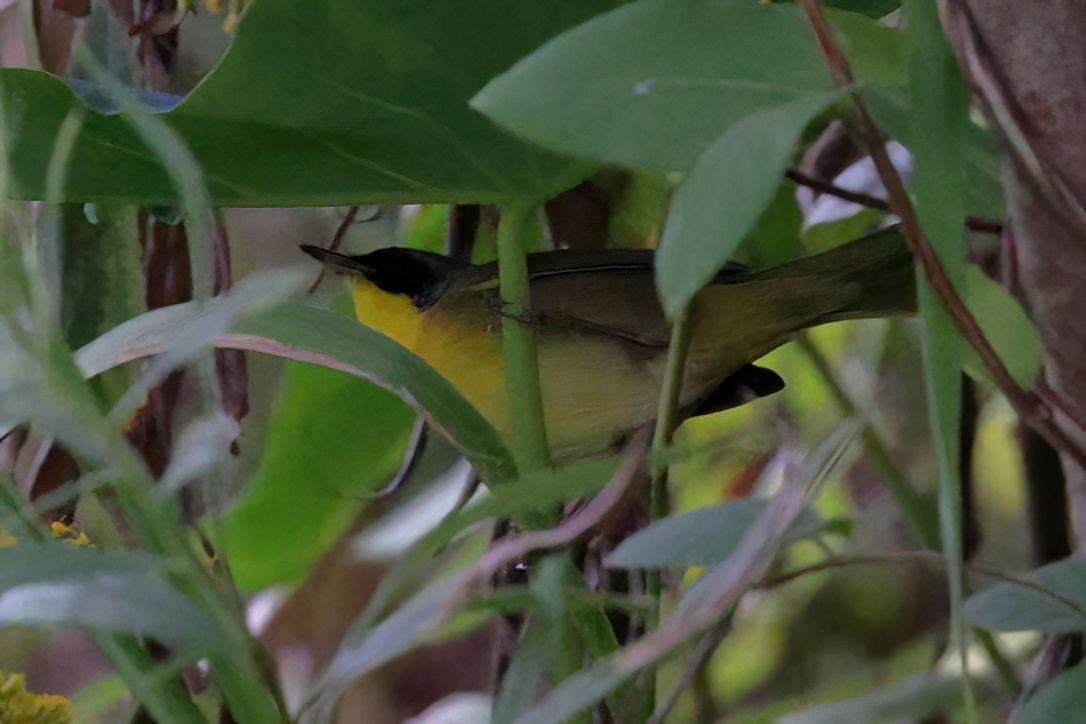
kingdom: Animalia
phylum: Chordata
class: Aves
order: Passeriformes
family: Parulidae
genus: Geothlypis
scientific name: Geothlypis trichas
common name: Common yellowthroat
